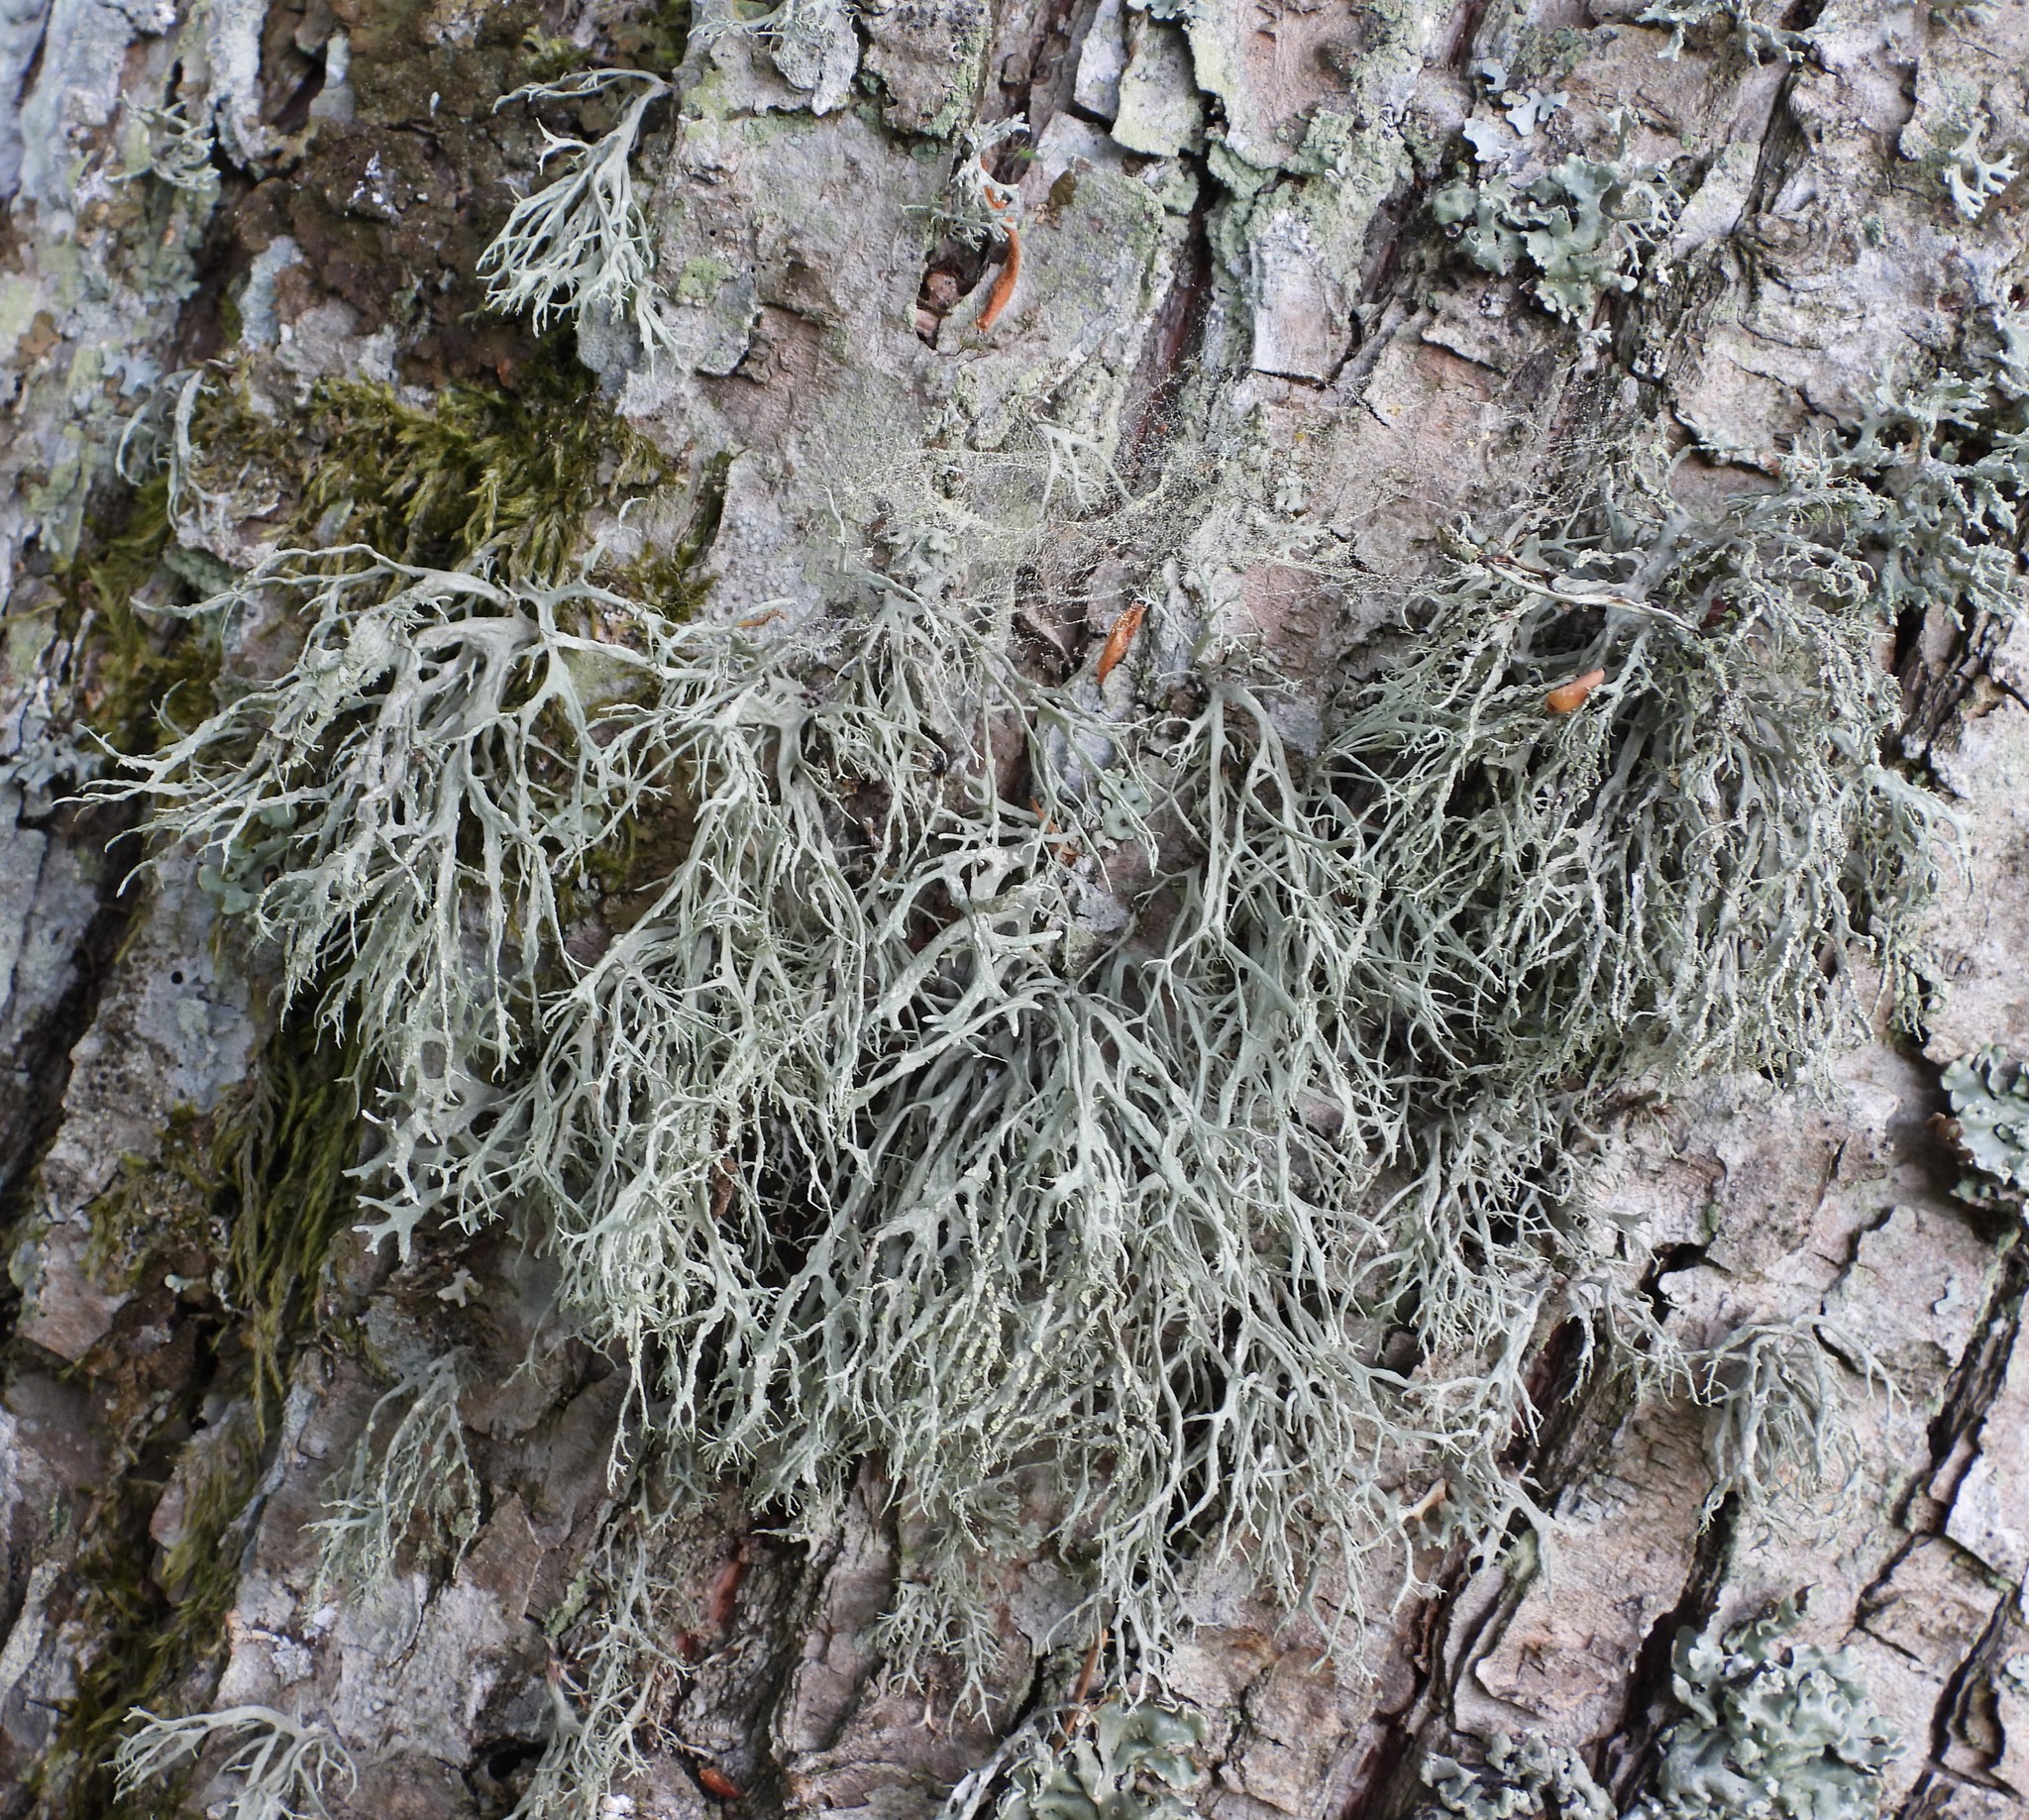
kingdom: Fungi
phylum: Ascomycota
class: Lecanoromycetes
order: Lecanorales
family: Ramalinaceae
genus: Ramalina
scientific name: Ramalina farinacea
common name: Farinose cartilage lichen
